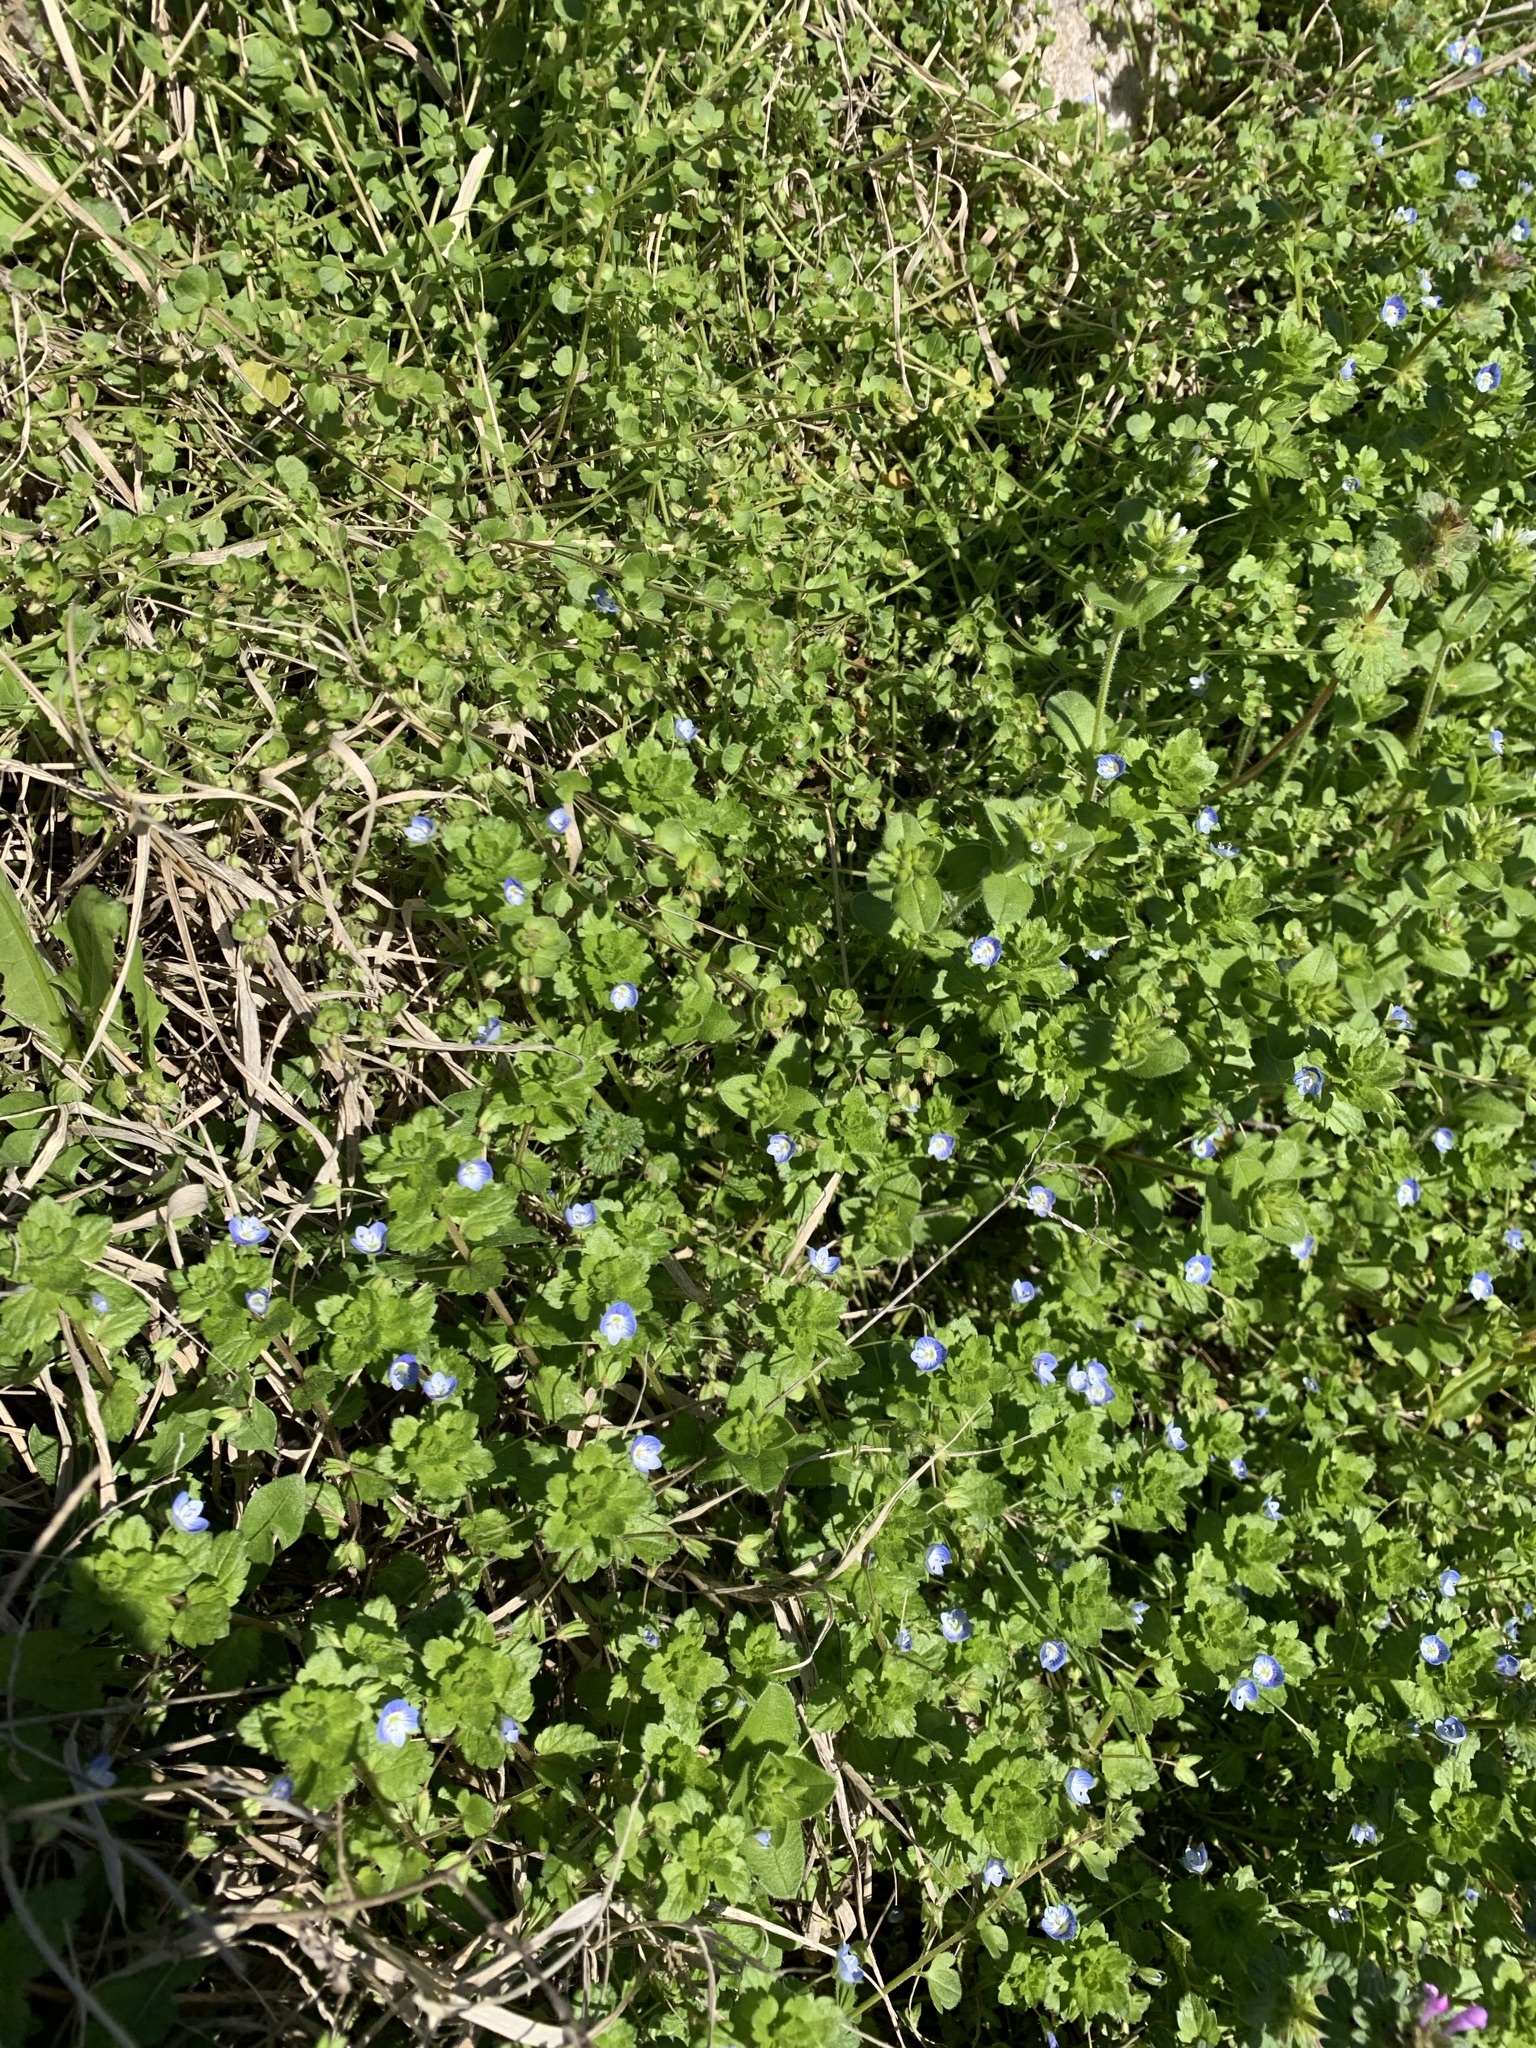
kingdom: Plantae
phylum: Tracheophyta
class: Magnoliopsida
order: Lamiales
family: Plantaginaceae
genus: Veronica
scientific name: Veronica persica
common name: Common field-speedwell
